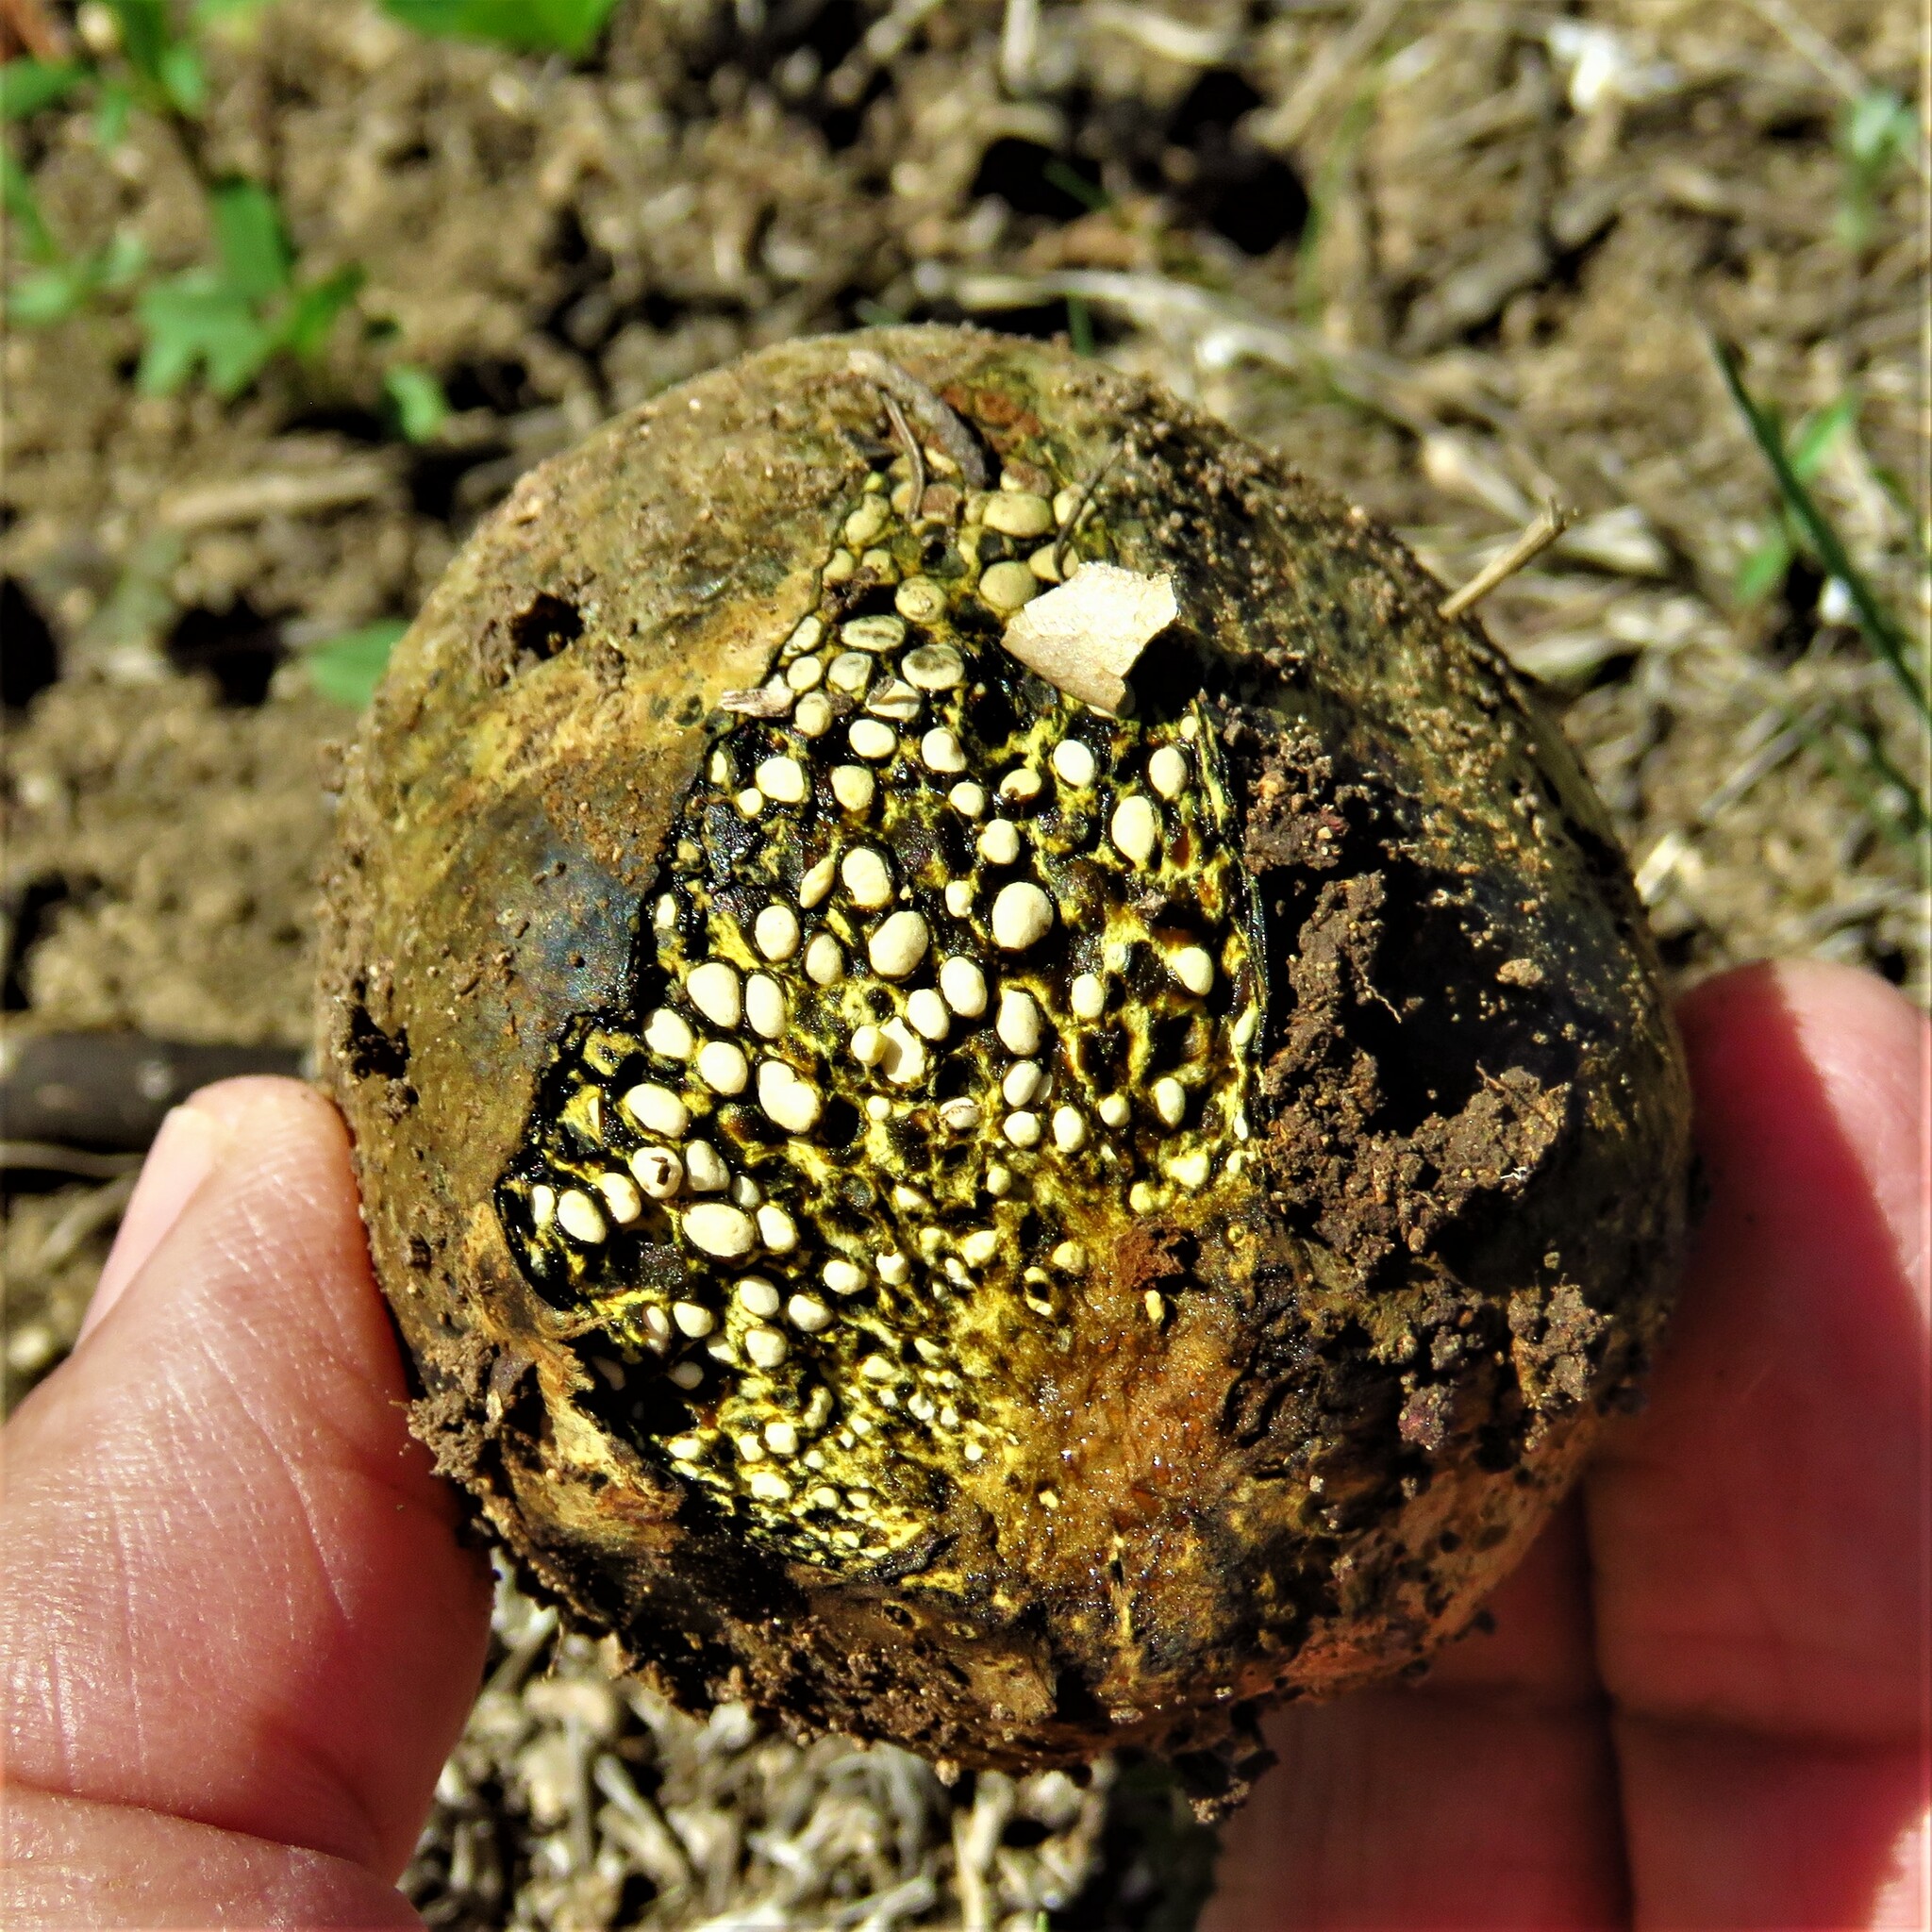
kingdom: Fungi
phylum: Basidiomycota
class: Agaricomycetes
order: Boletales
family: Sclerodermataceae
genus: Pisolithus
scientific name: Pisolithus arenarius
